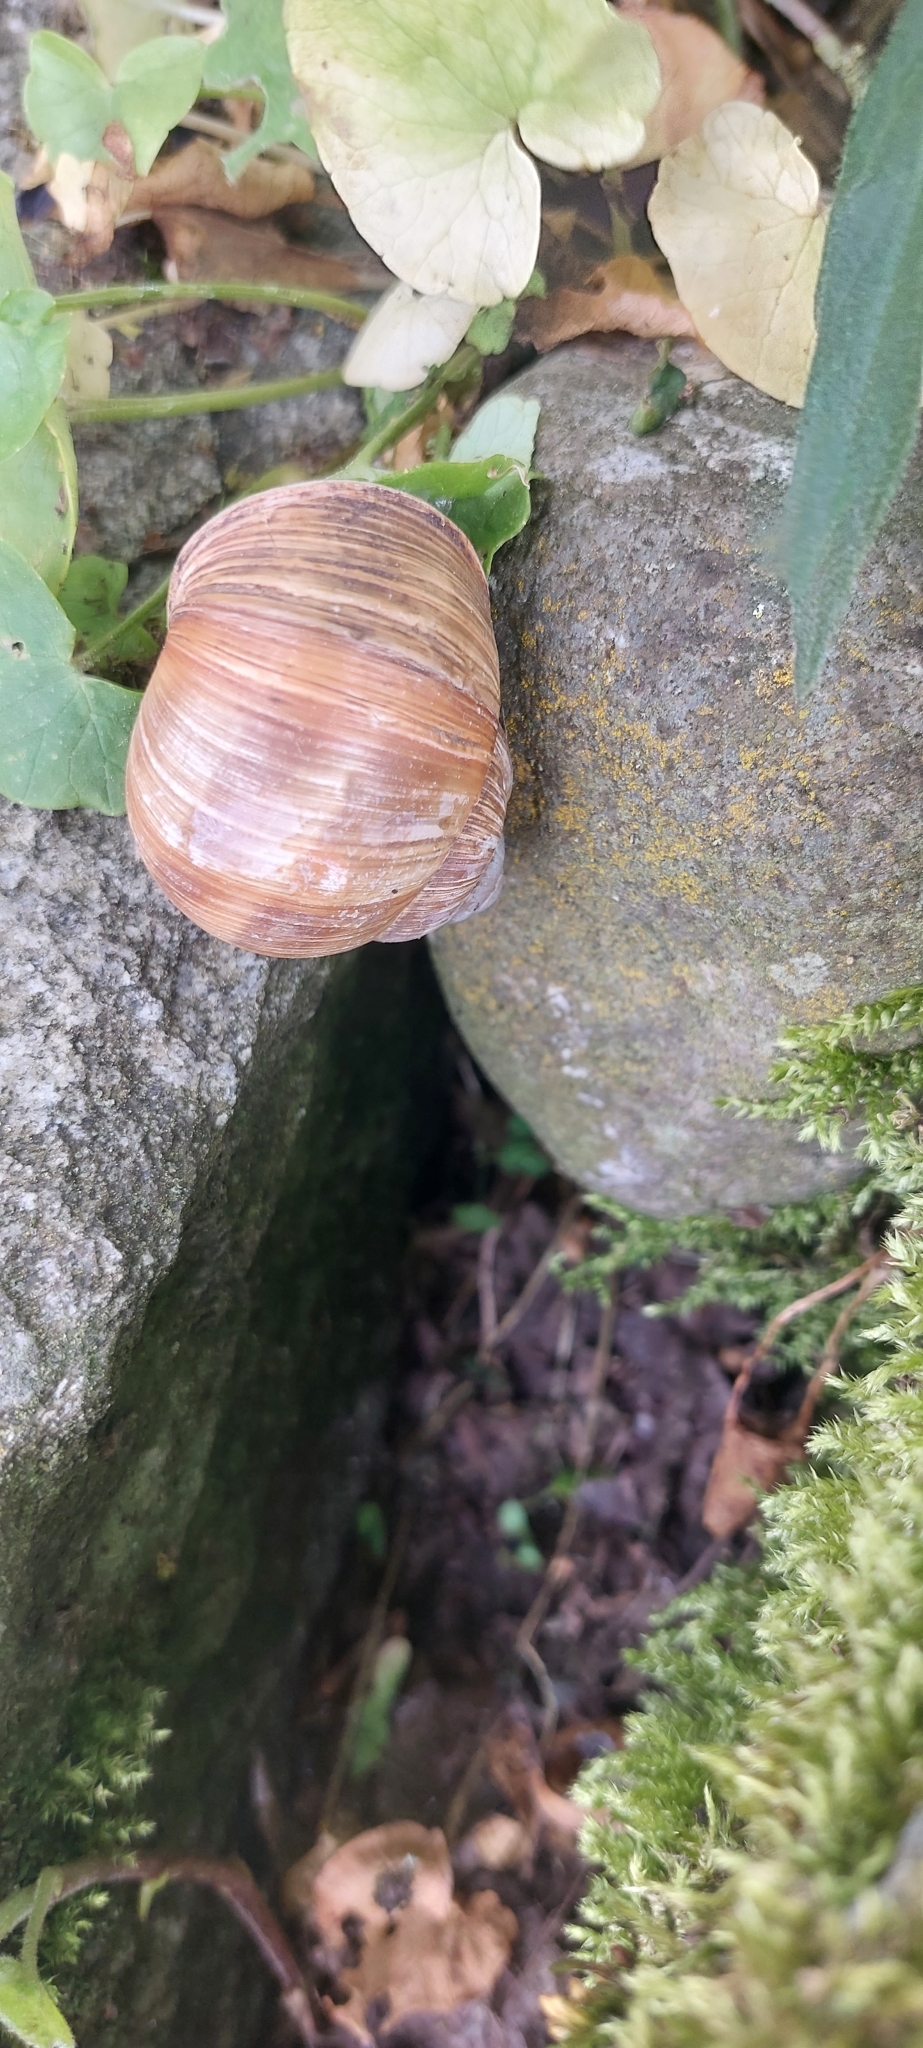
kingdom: Animalia
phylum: Mollusca
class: Gastropoda
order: Stylommatophora
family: Helicidae
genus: Helix
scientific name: Helix pomatia
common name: Roman snail
